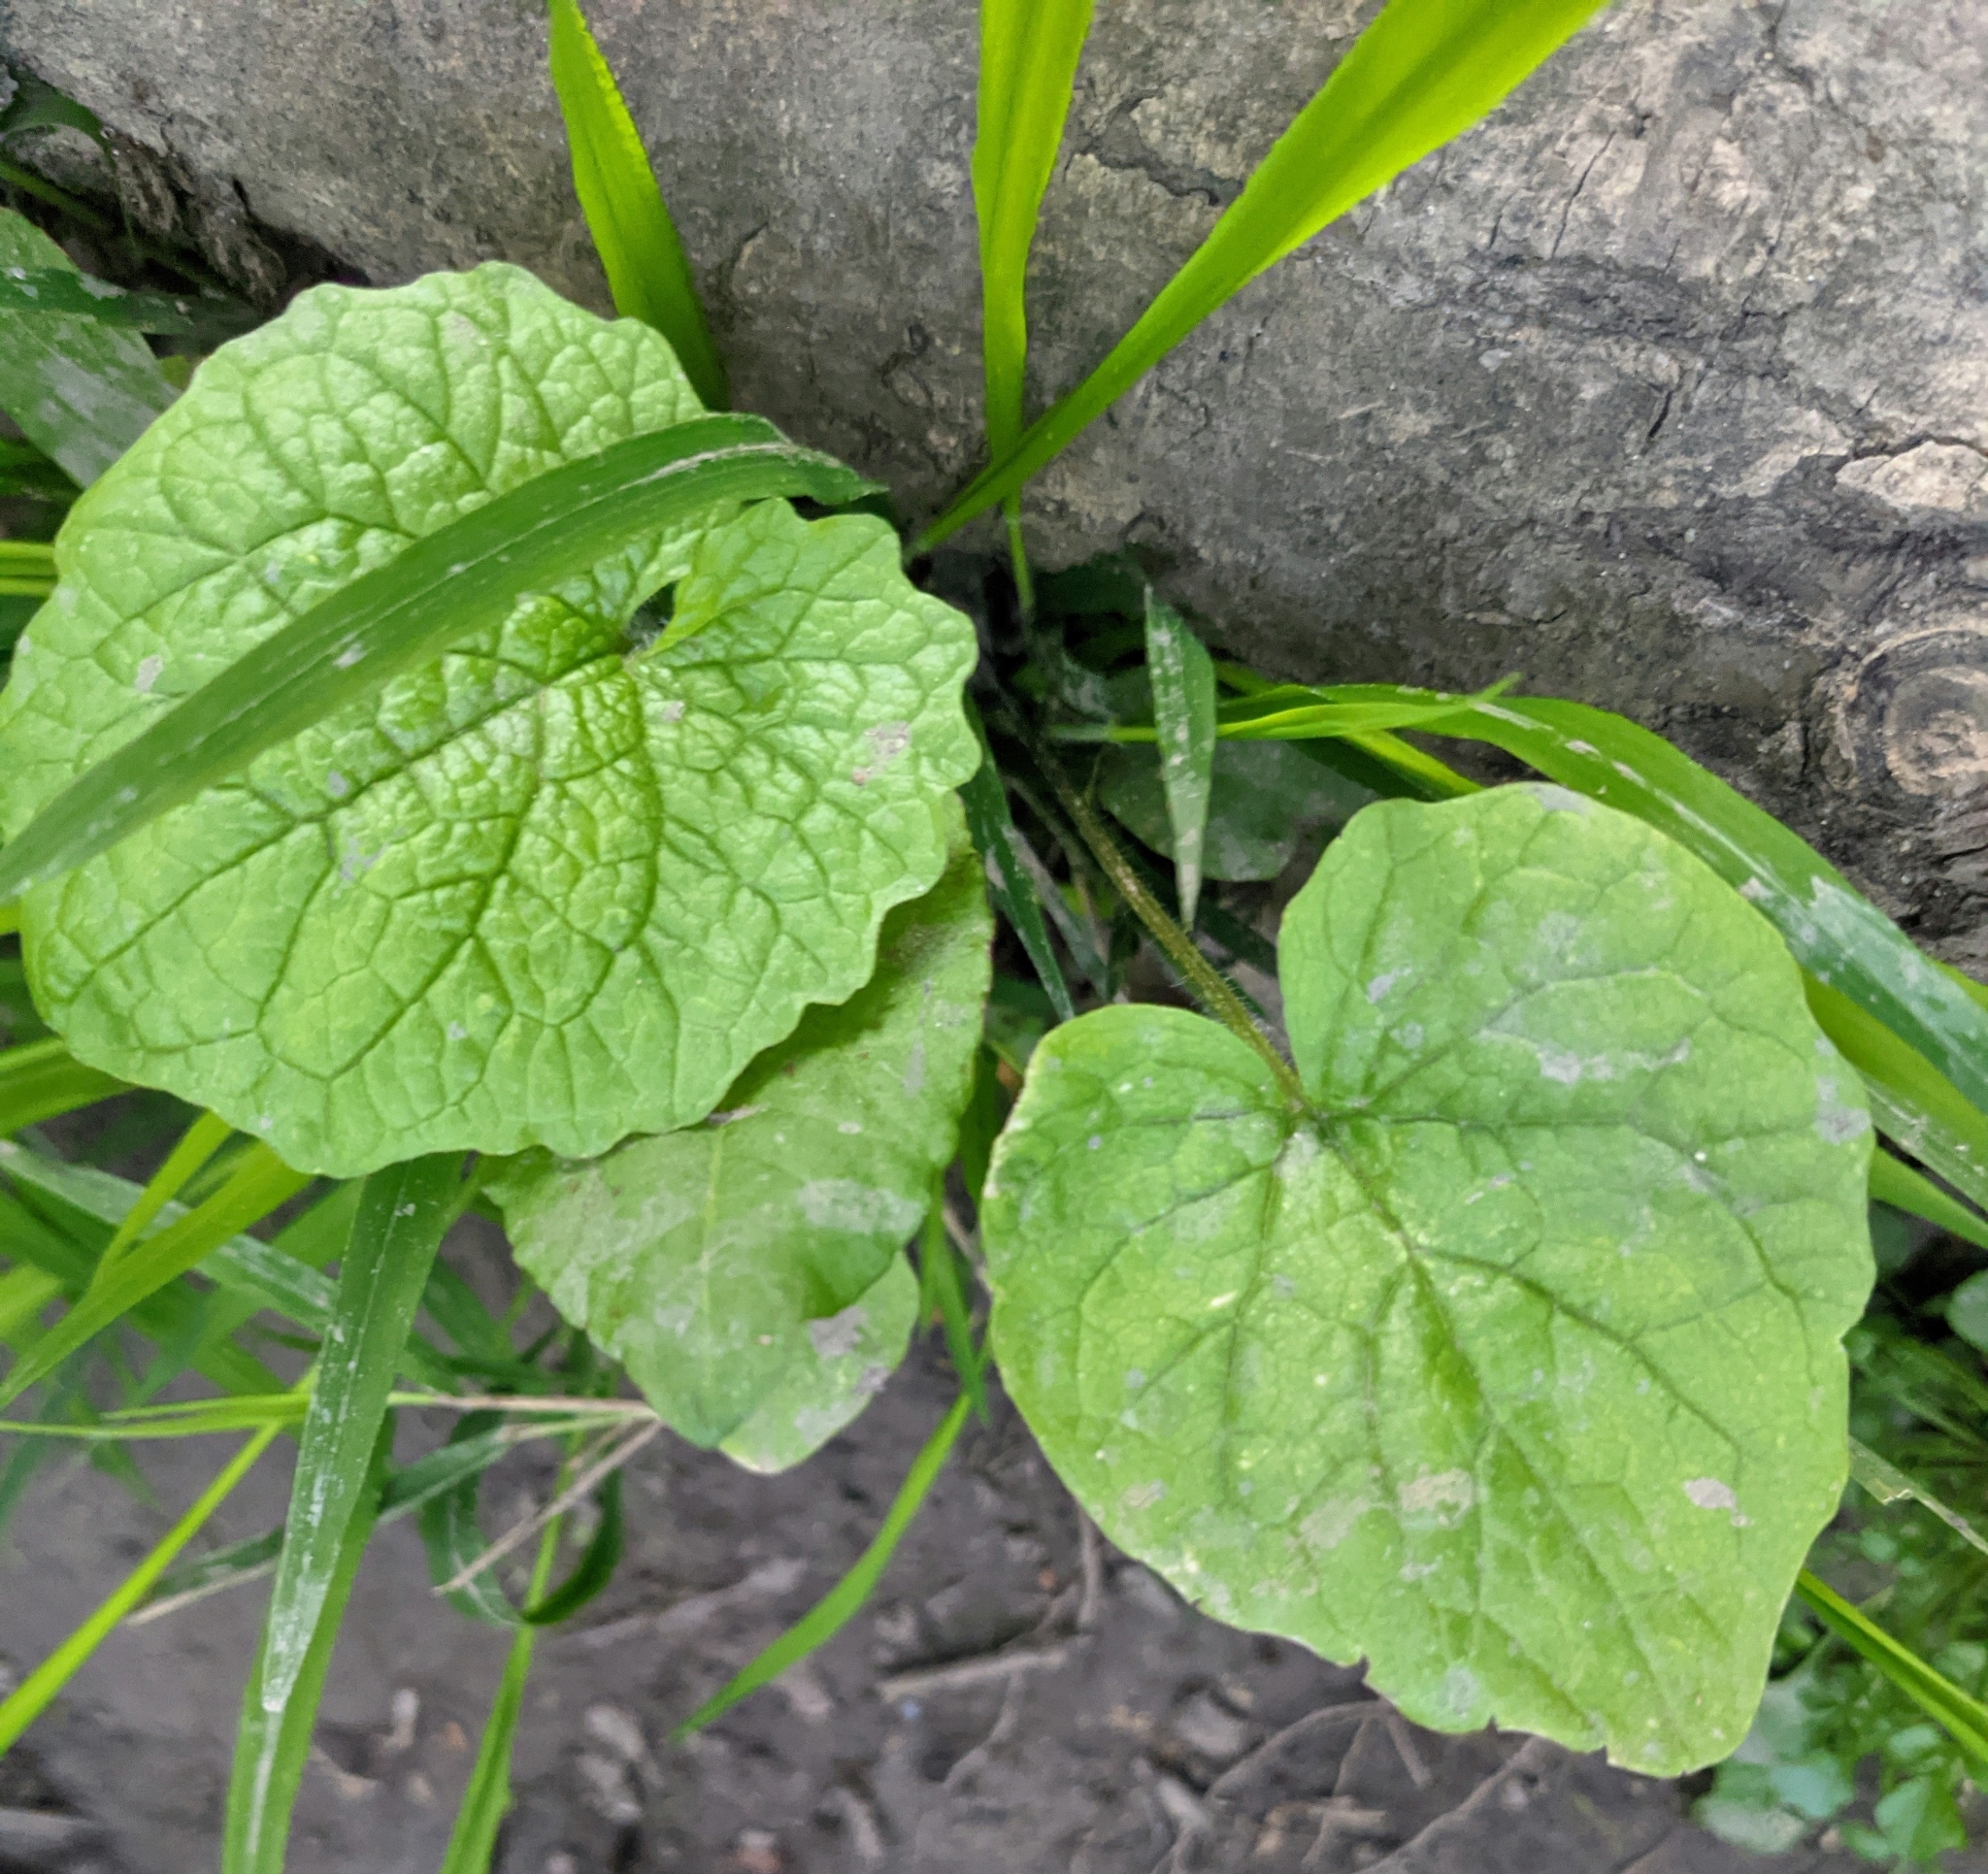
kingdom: Plantae
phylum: Tracheophyta
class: Magnoliopsida
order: Brassicales
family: Brassicaceae
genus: Alliaria
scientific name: Alliaria petiolata
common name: Garlic mustard
